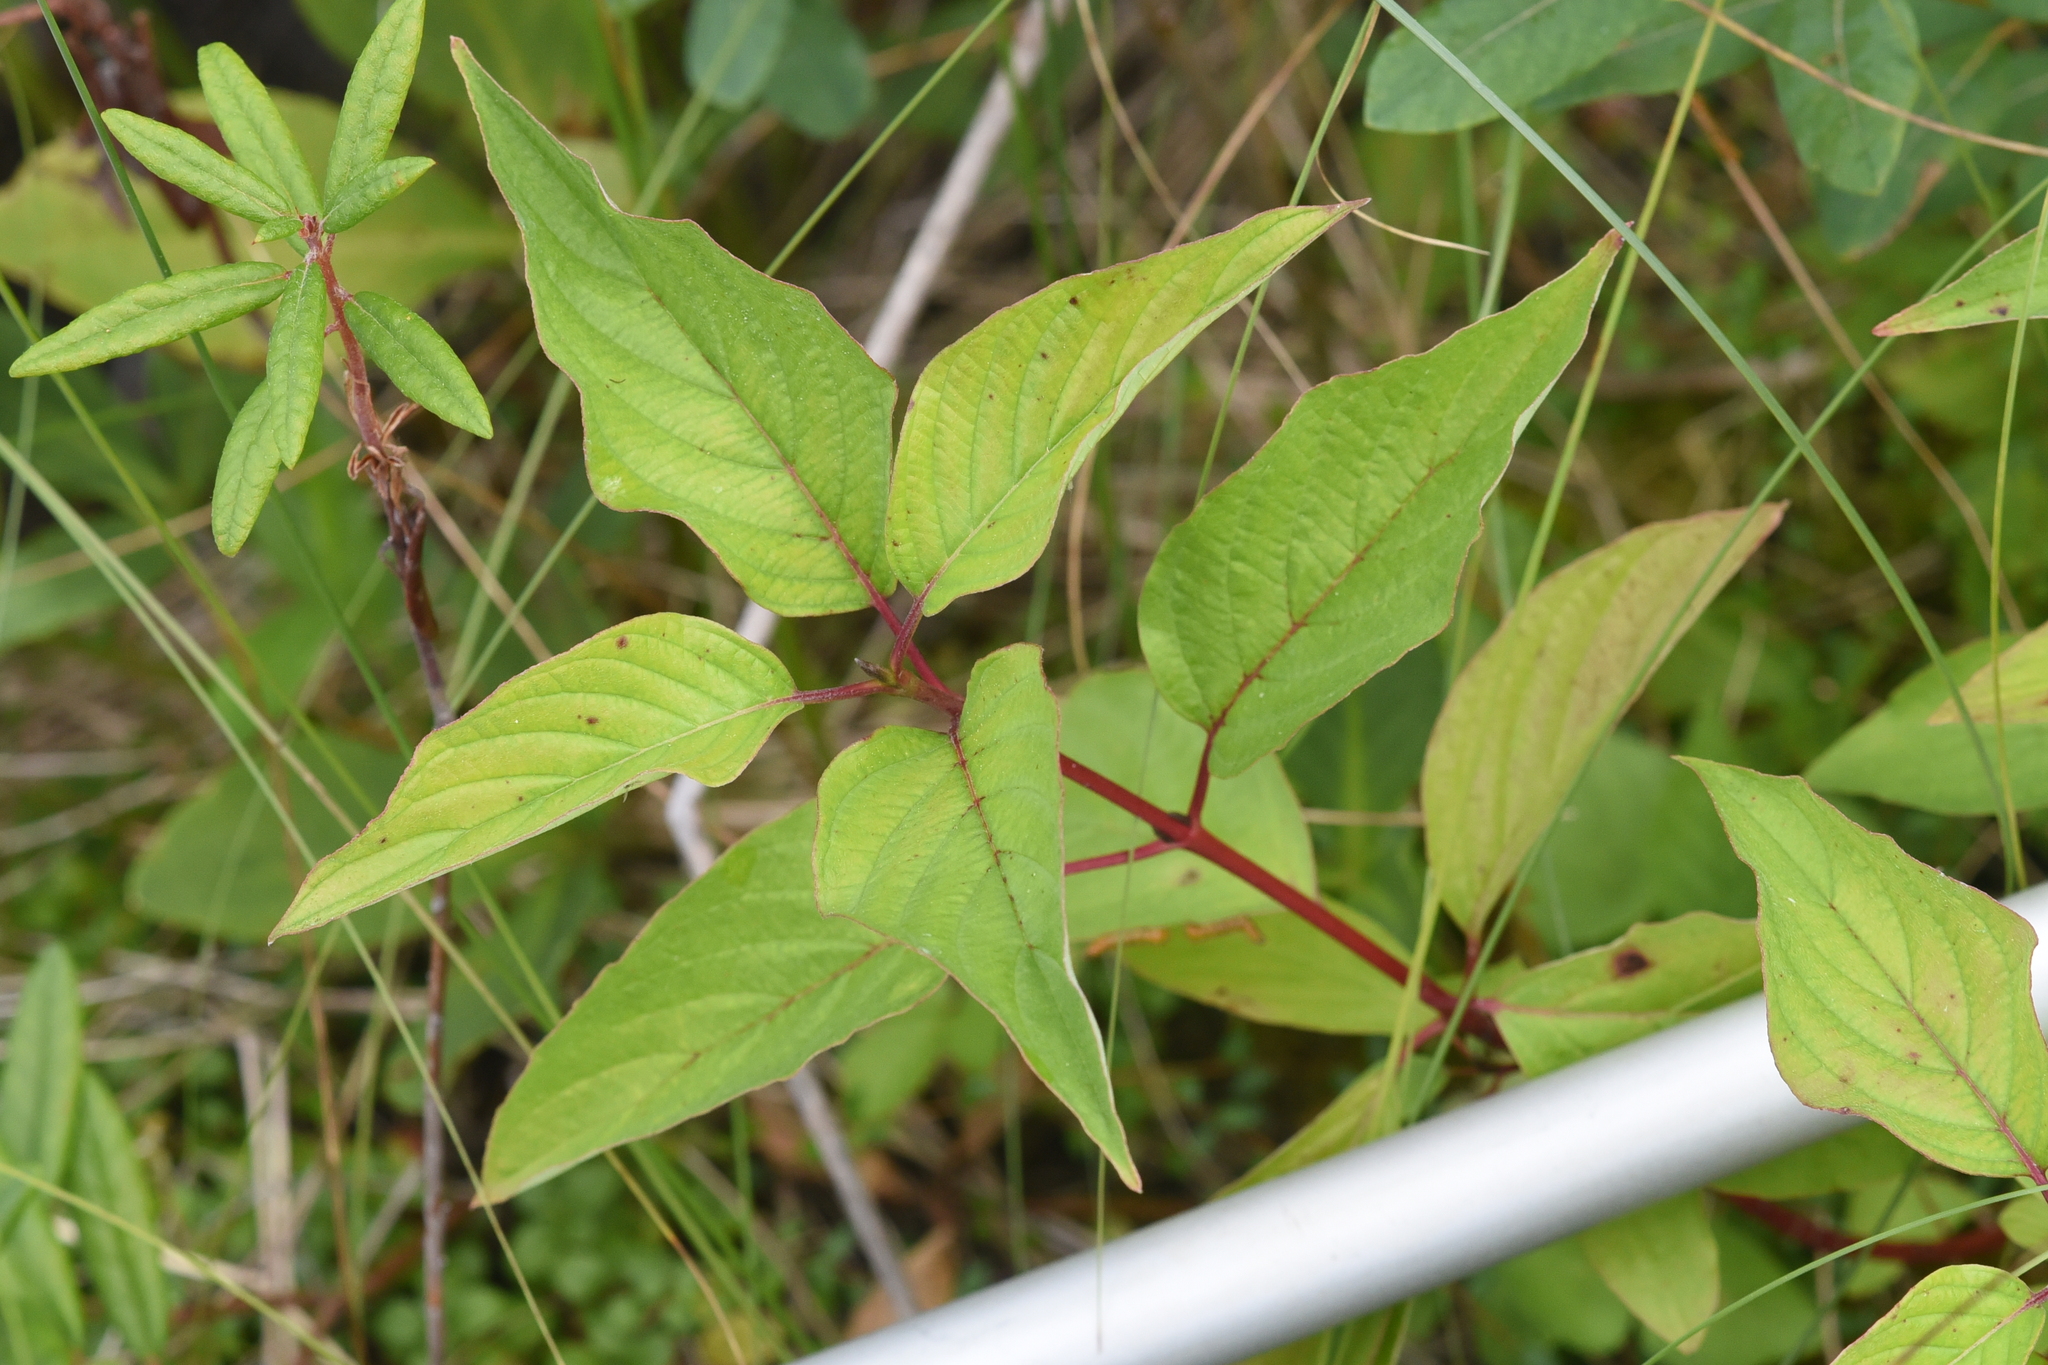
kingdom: Plantae
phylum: Tracheophyta
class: Magnoliopsida
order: Cornales
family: Cornaceae
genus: Cornus
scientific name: Cornus sericea
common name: Red-osier dogwood
